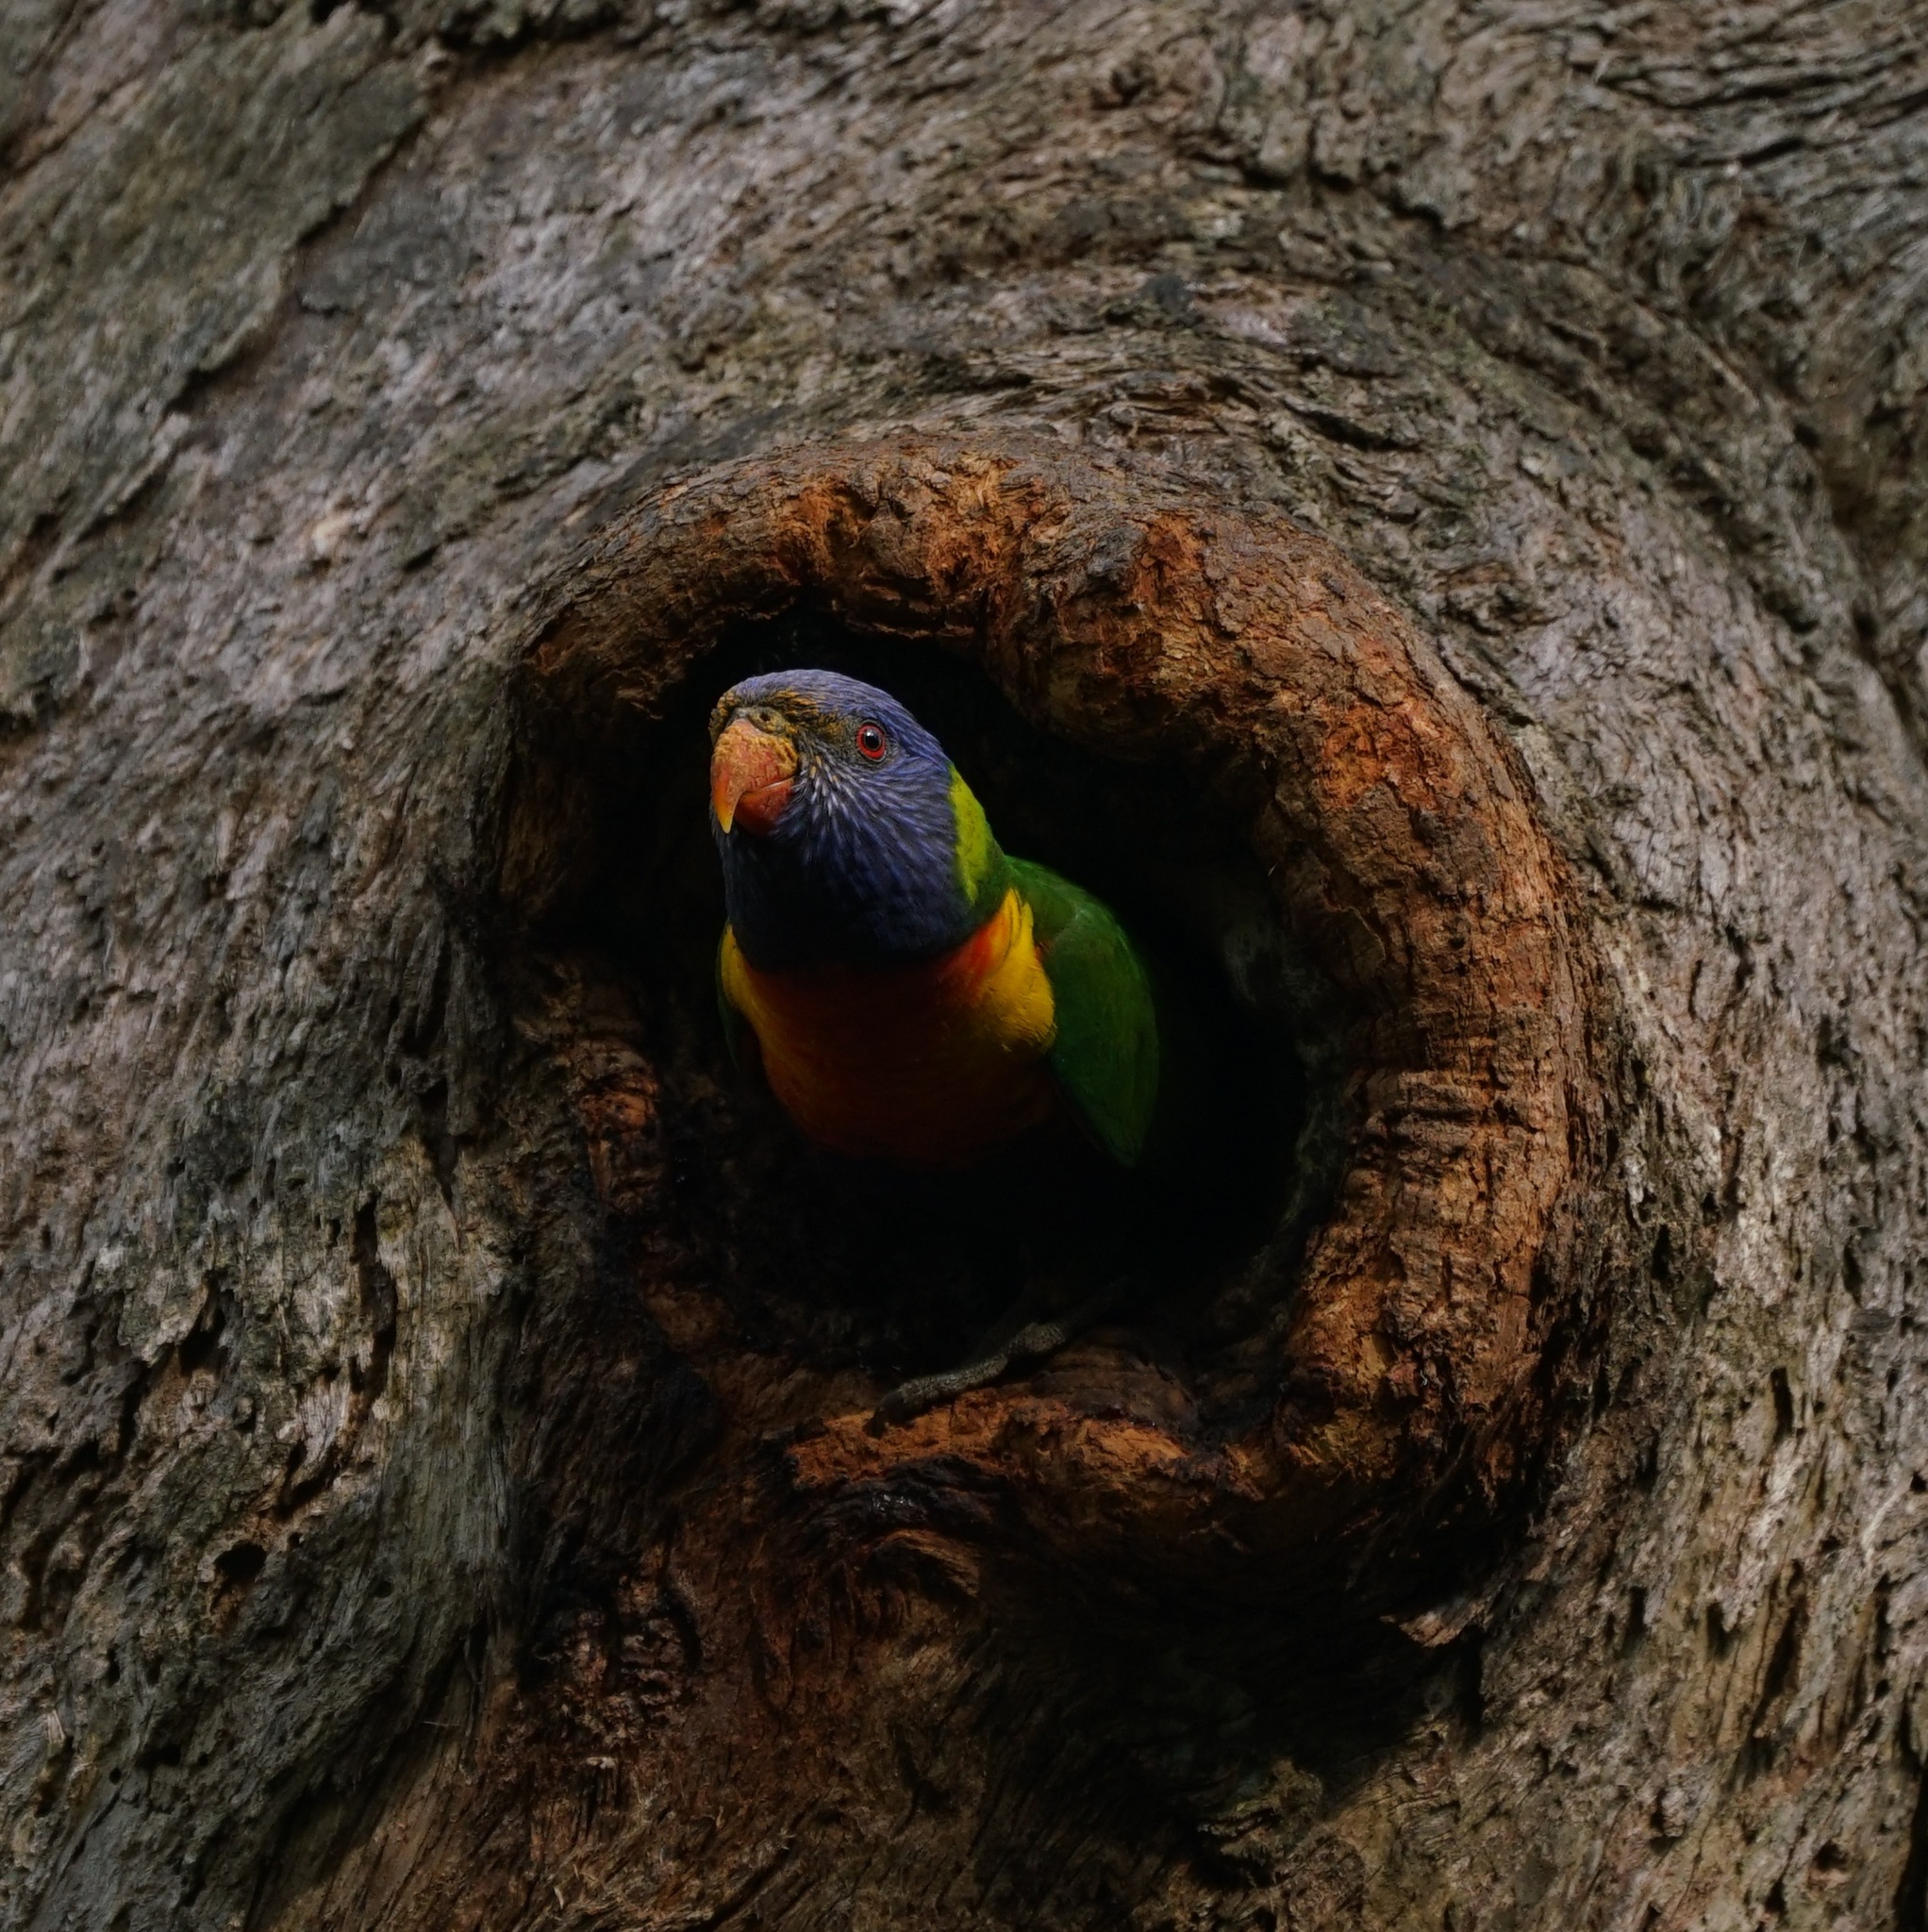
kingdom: Animalia
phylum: Chordata
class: Aves
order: Psittaciformes
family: Psittacidae
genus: Trichoglossus
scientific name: Trichoglossus haematodus
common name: Coconut lorikeet
